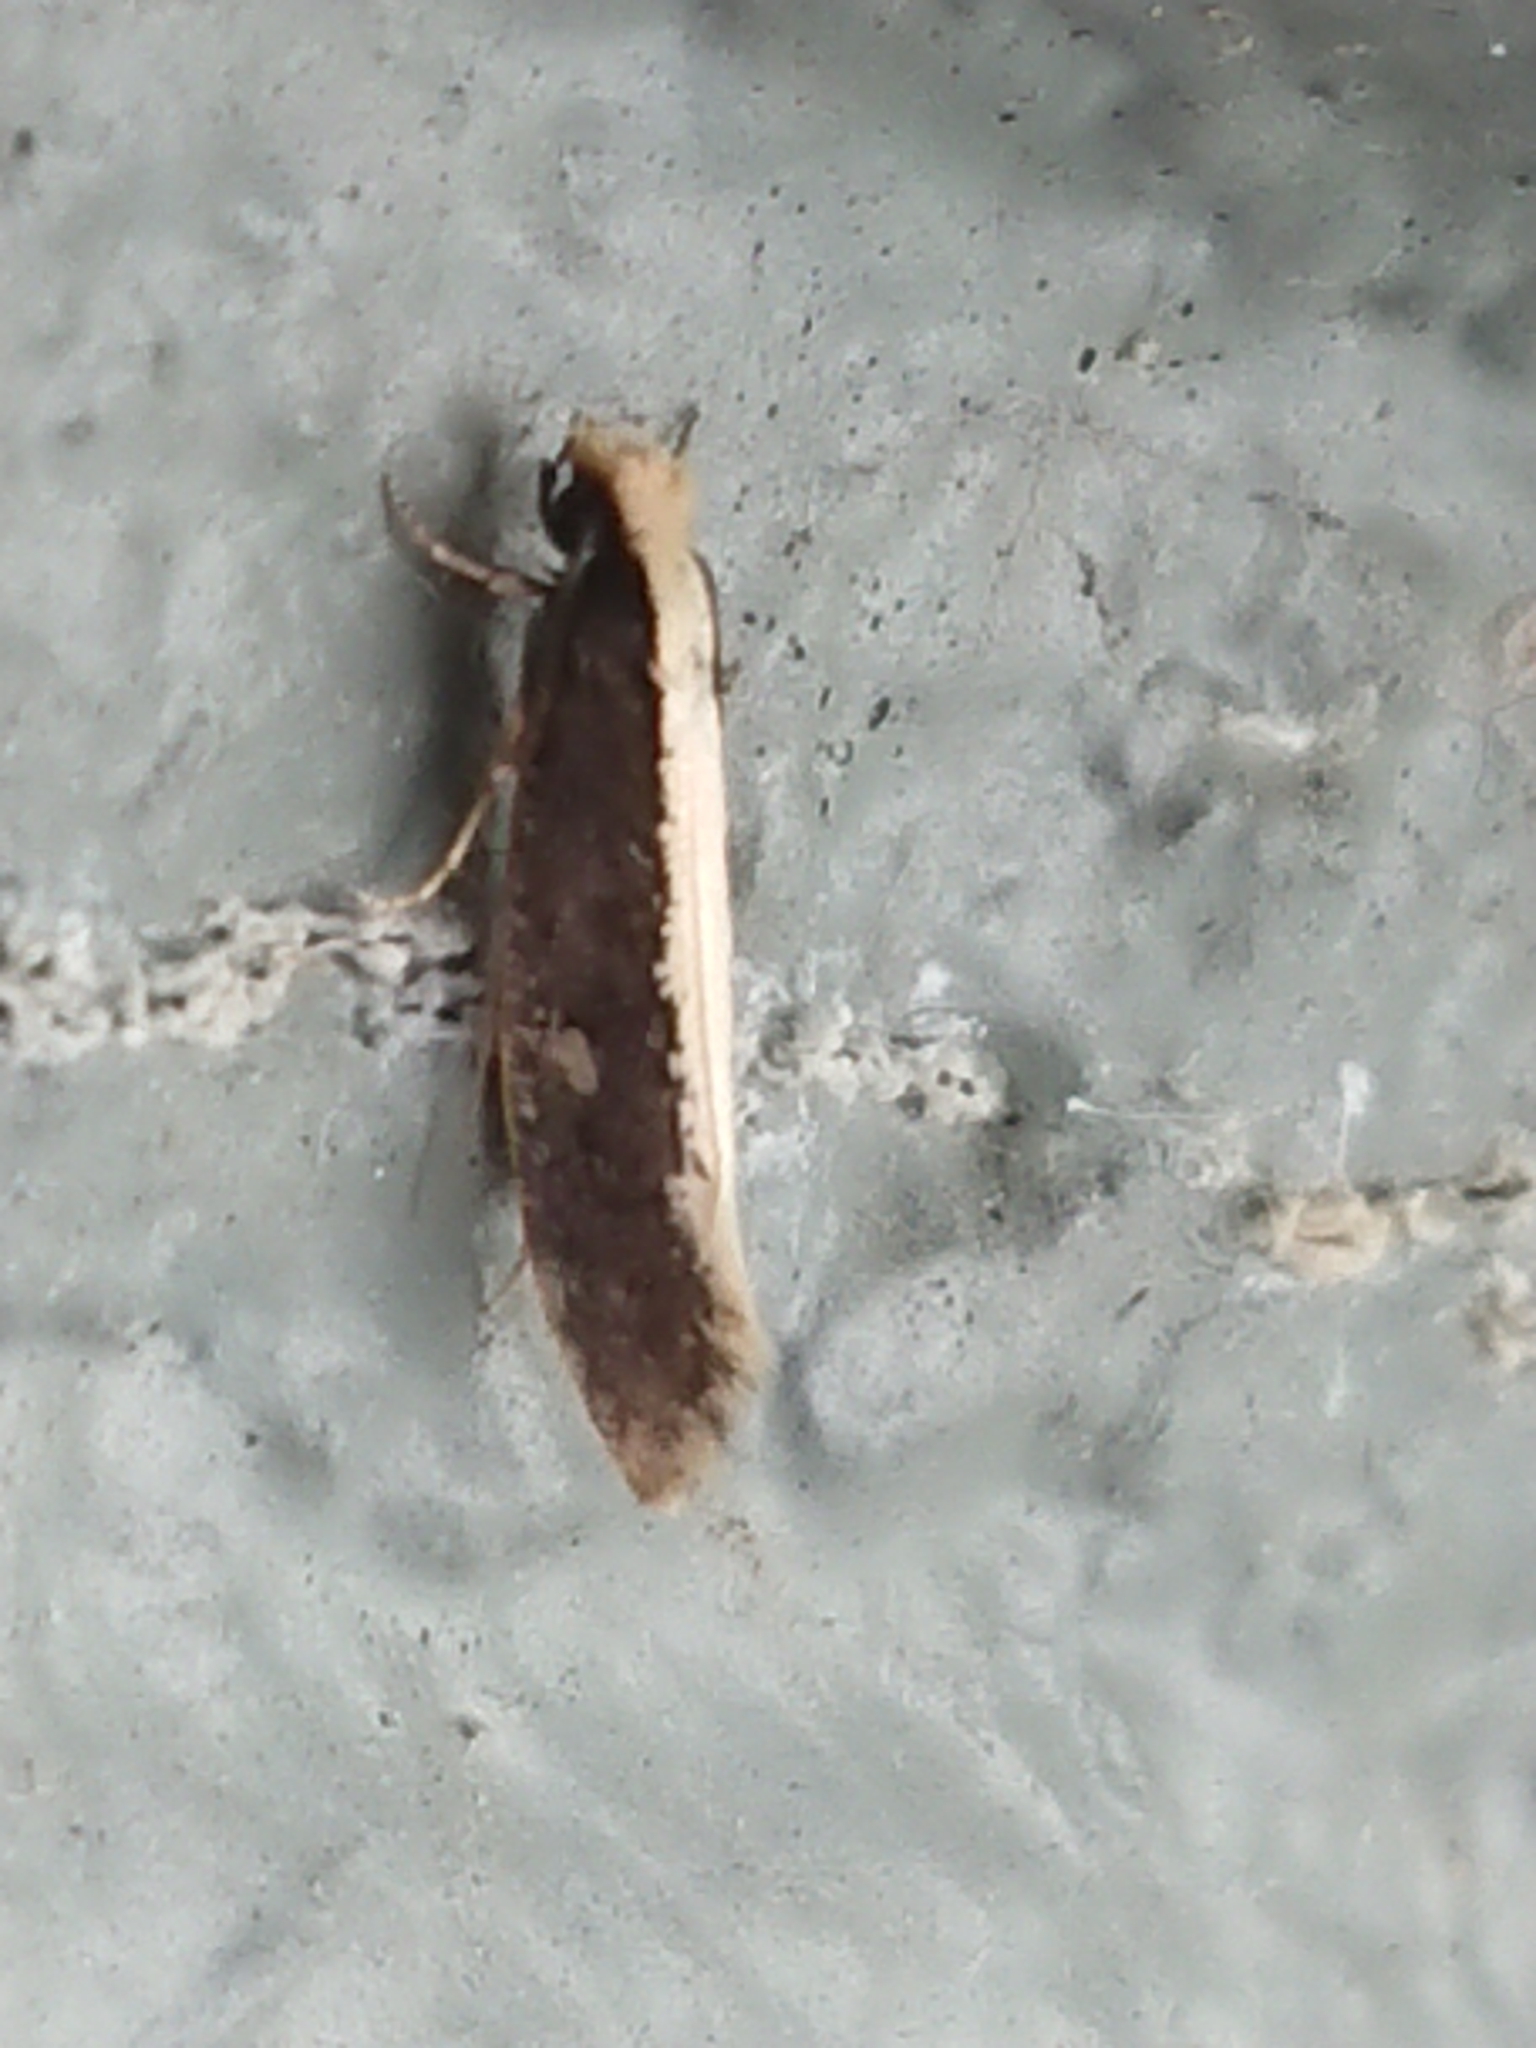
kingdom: Animalia
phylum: Arthropoda
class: Insecta
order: Lepidoptera
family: Tineidae
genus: Monopis
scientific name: Monopis ethelella
